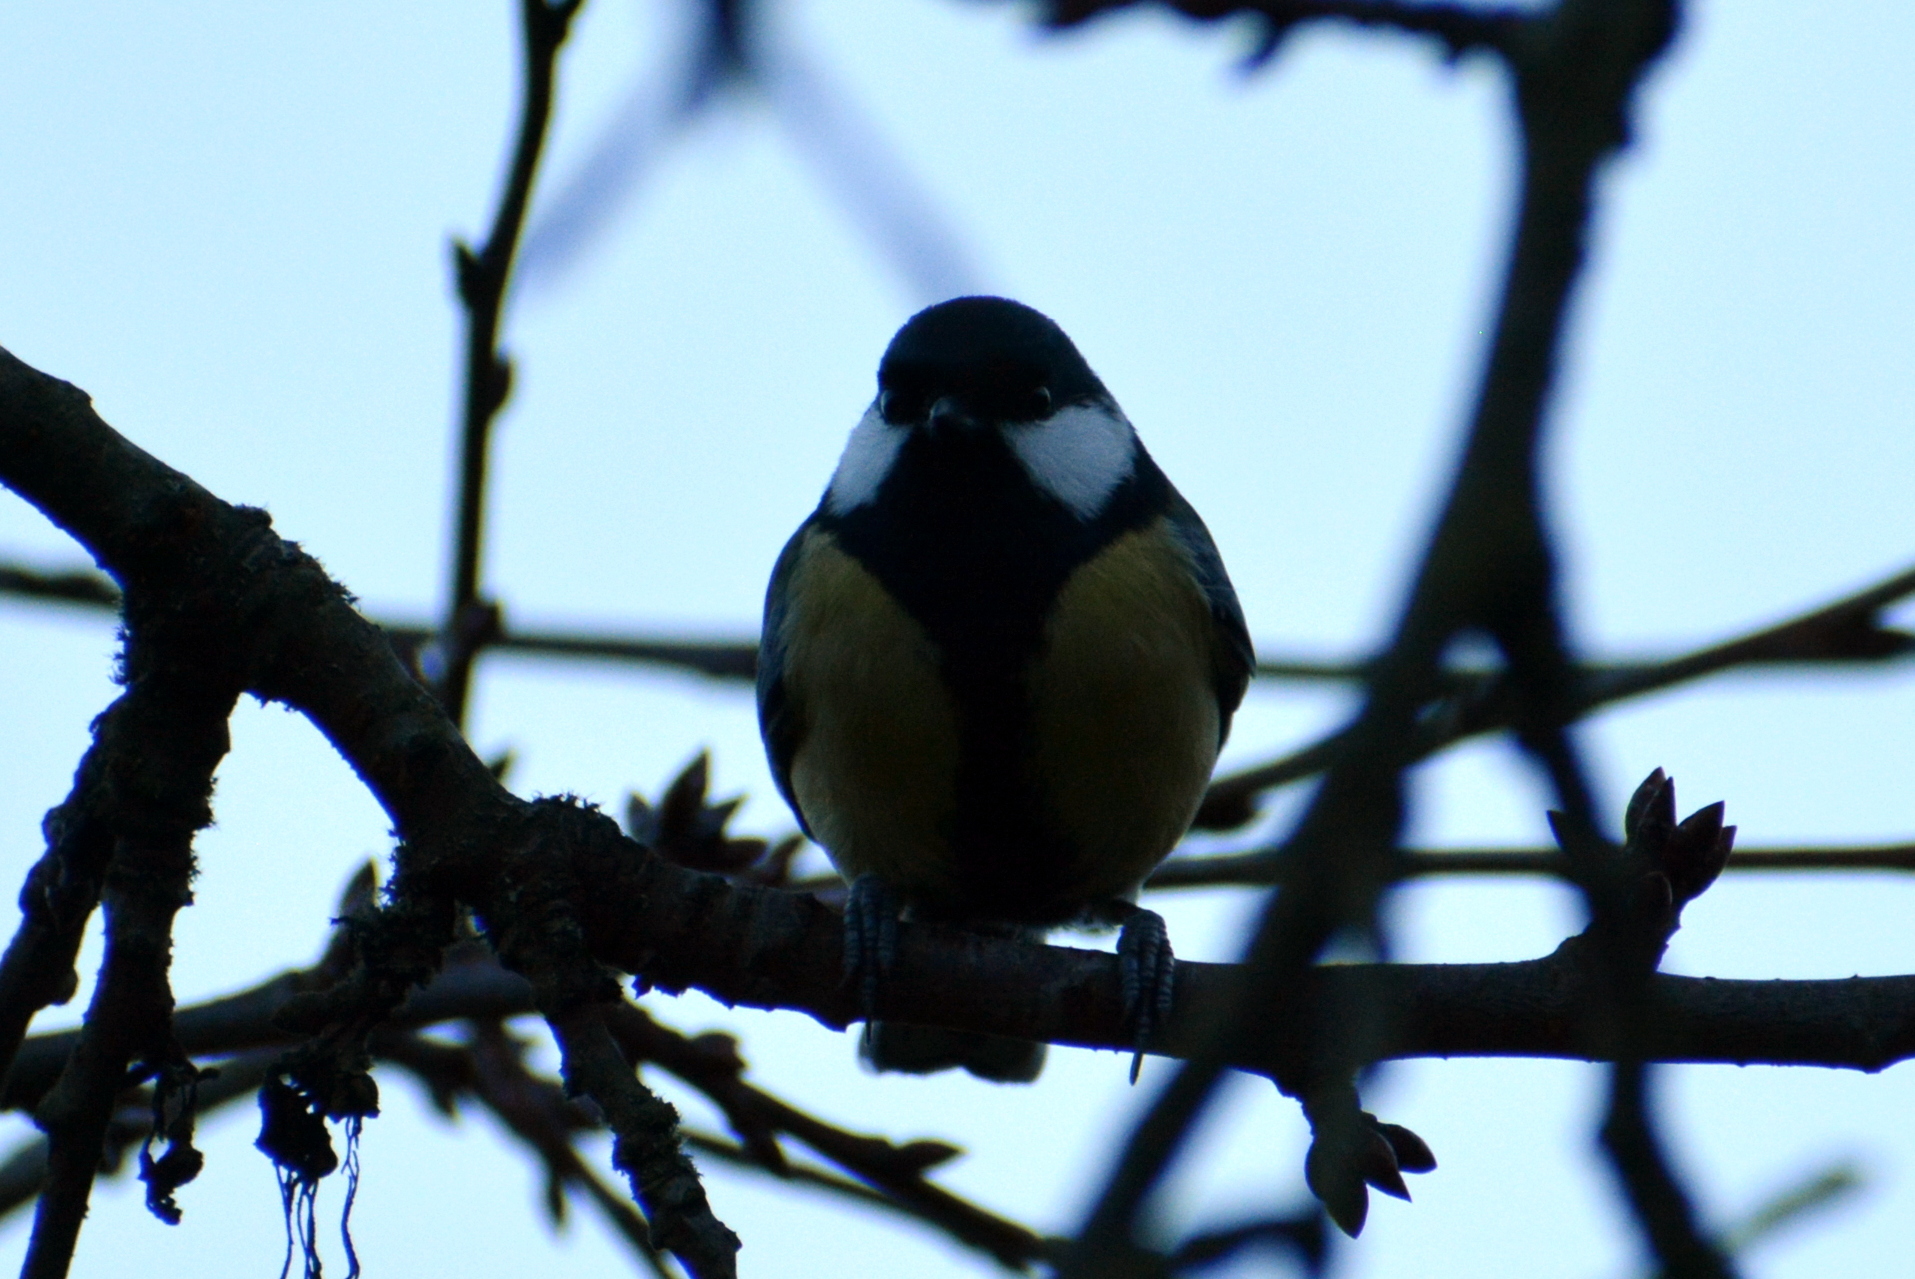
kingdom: Animalia
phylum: Chordata
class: Aves
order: Passeriformes
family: Paridae
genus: Parus
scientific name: Parus major
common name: Great tit
